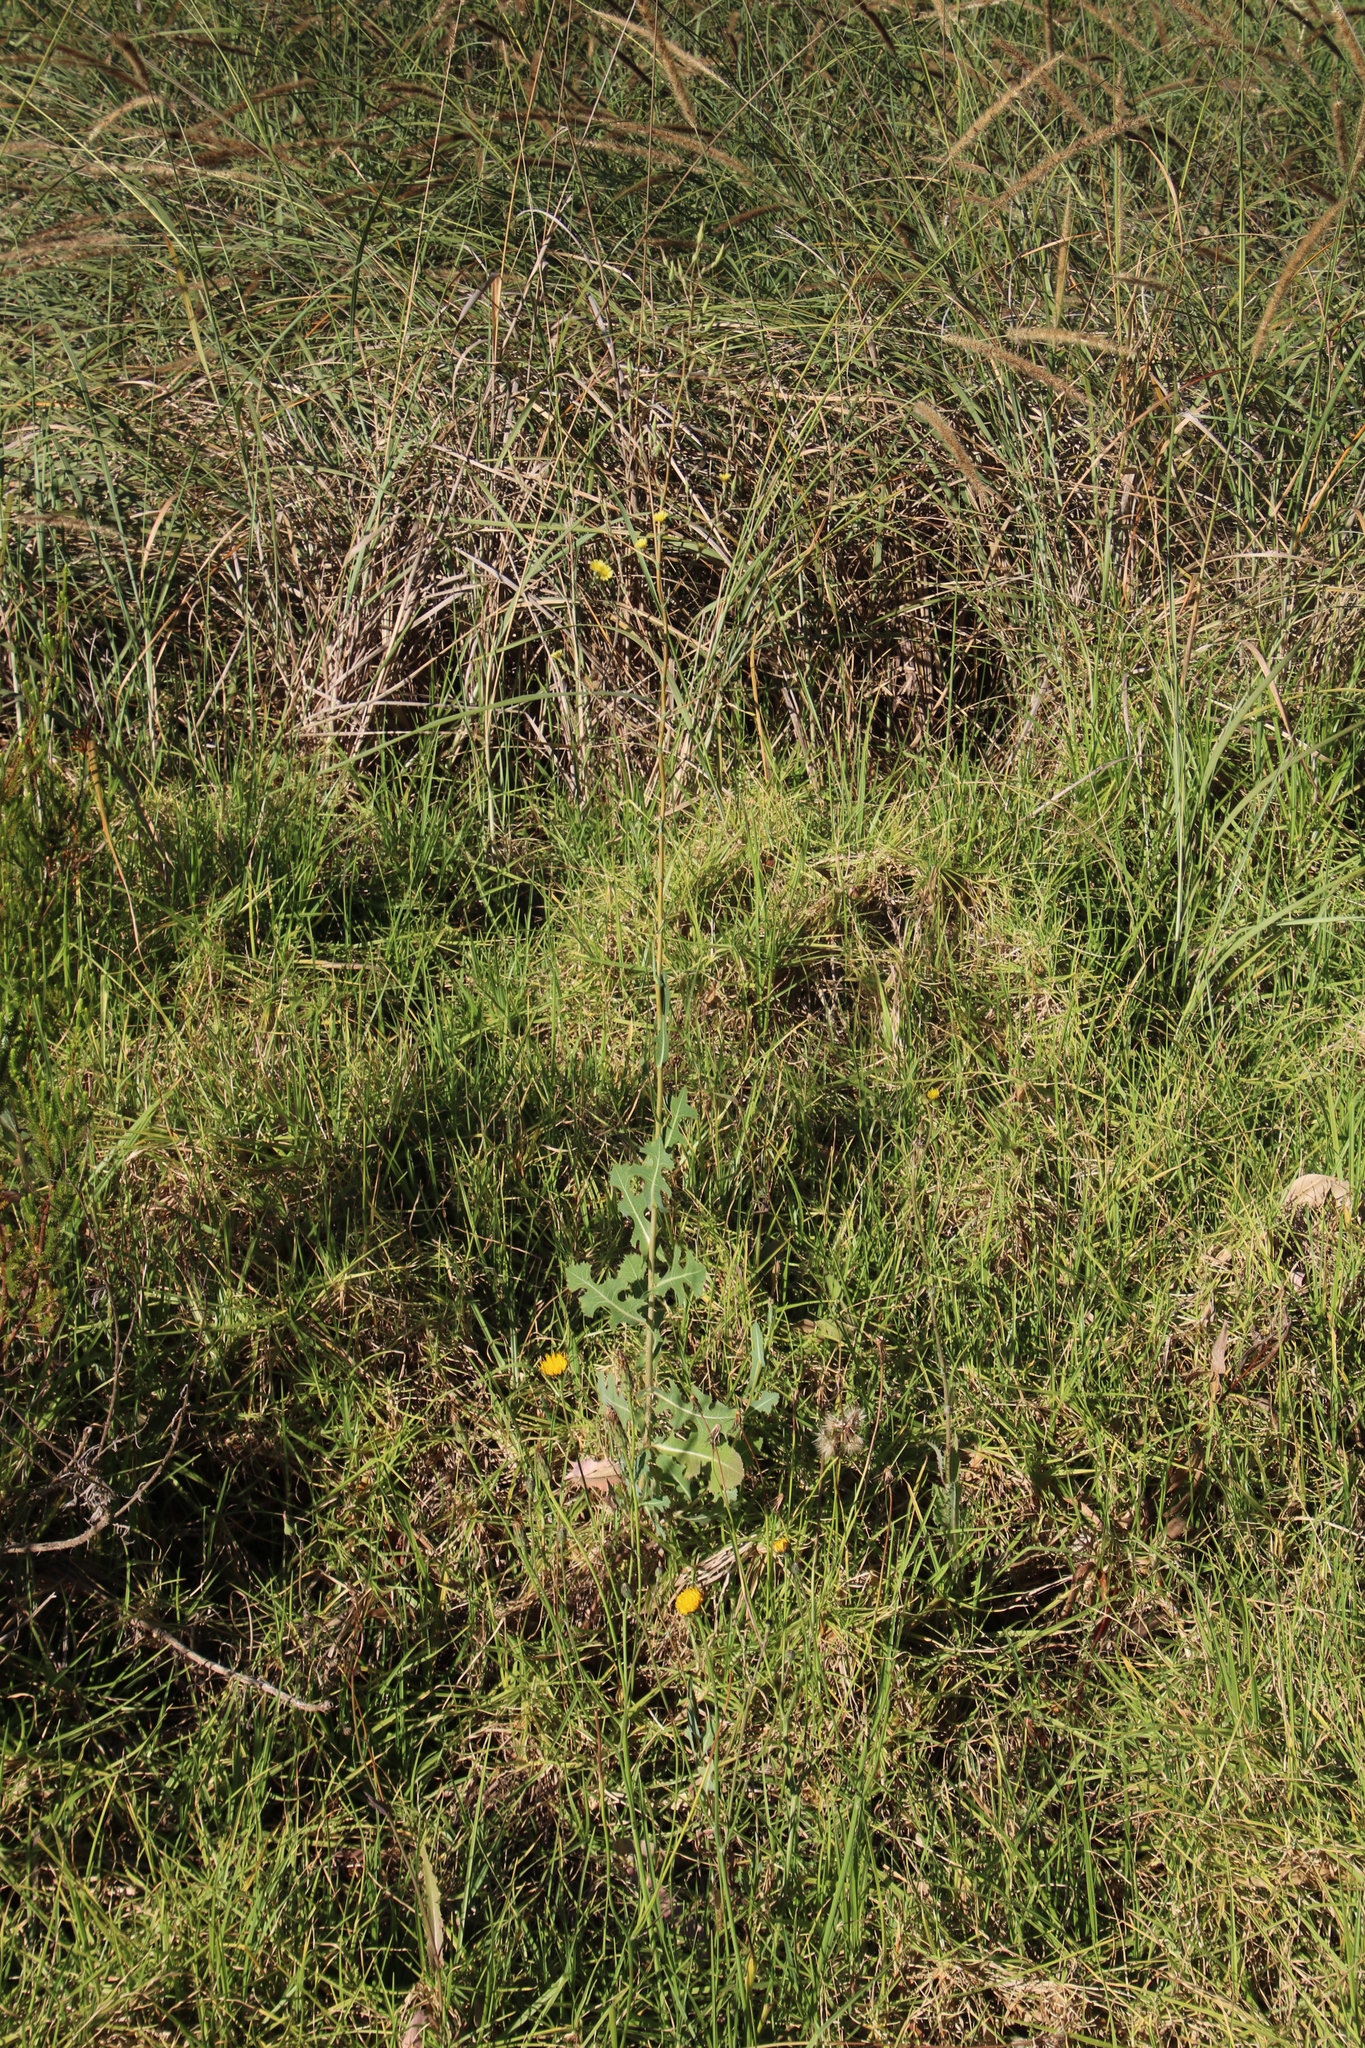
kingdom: Plantae
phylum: Tracheophyta
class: Magnoliopsida
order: Asterales
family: Asteraceae
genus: Lactuca
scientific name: Lactuca serriola
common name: Prickly lettuce
